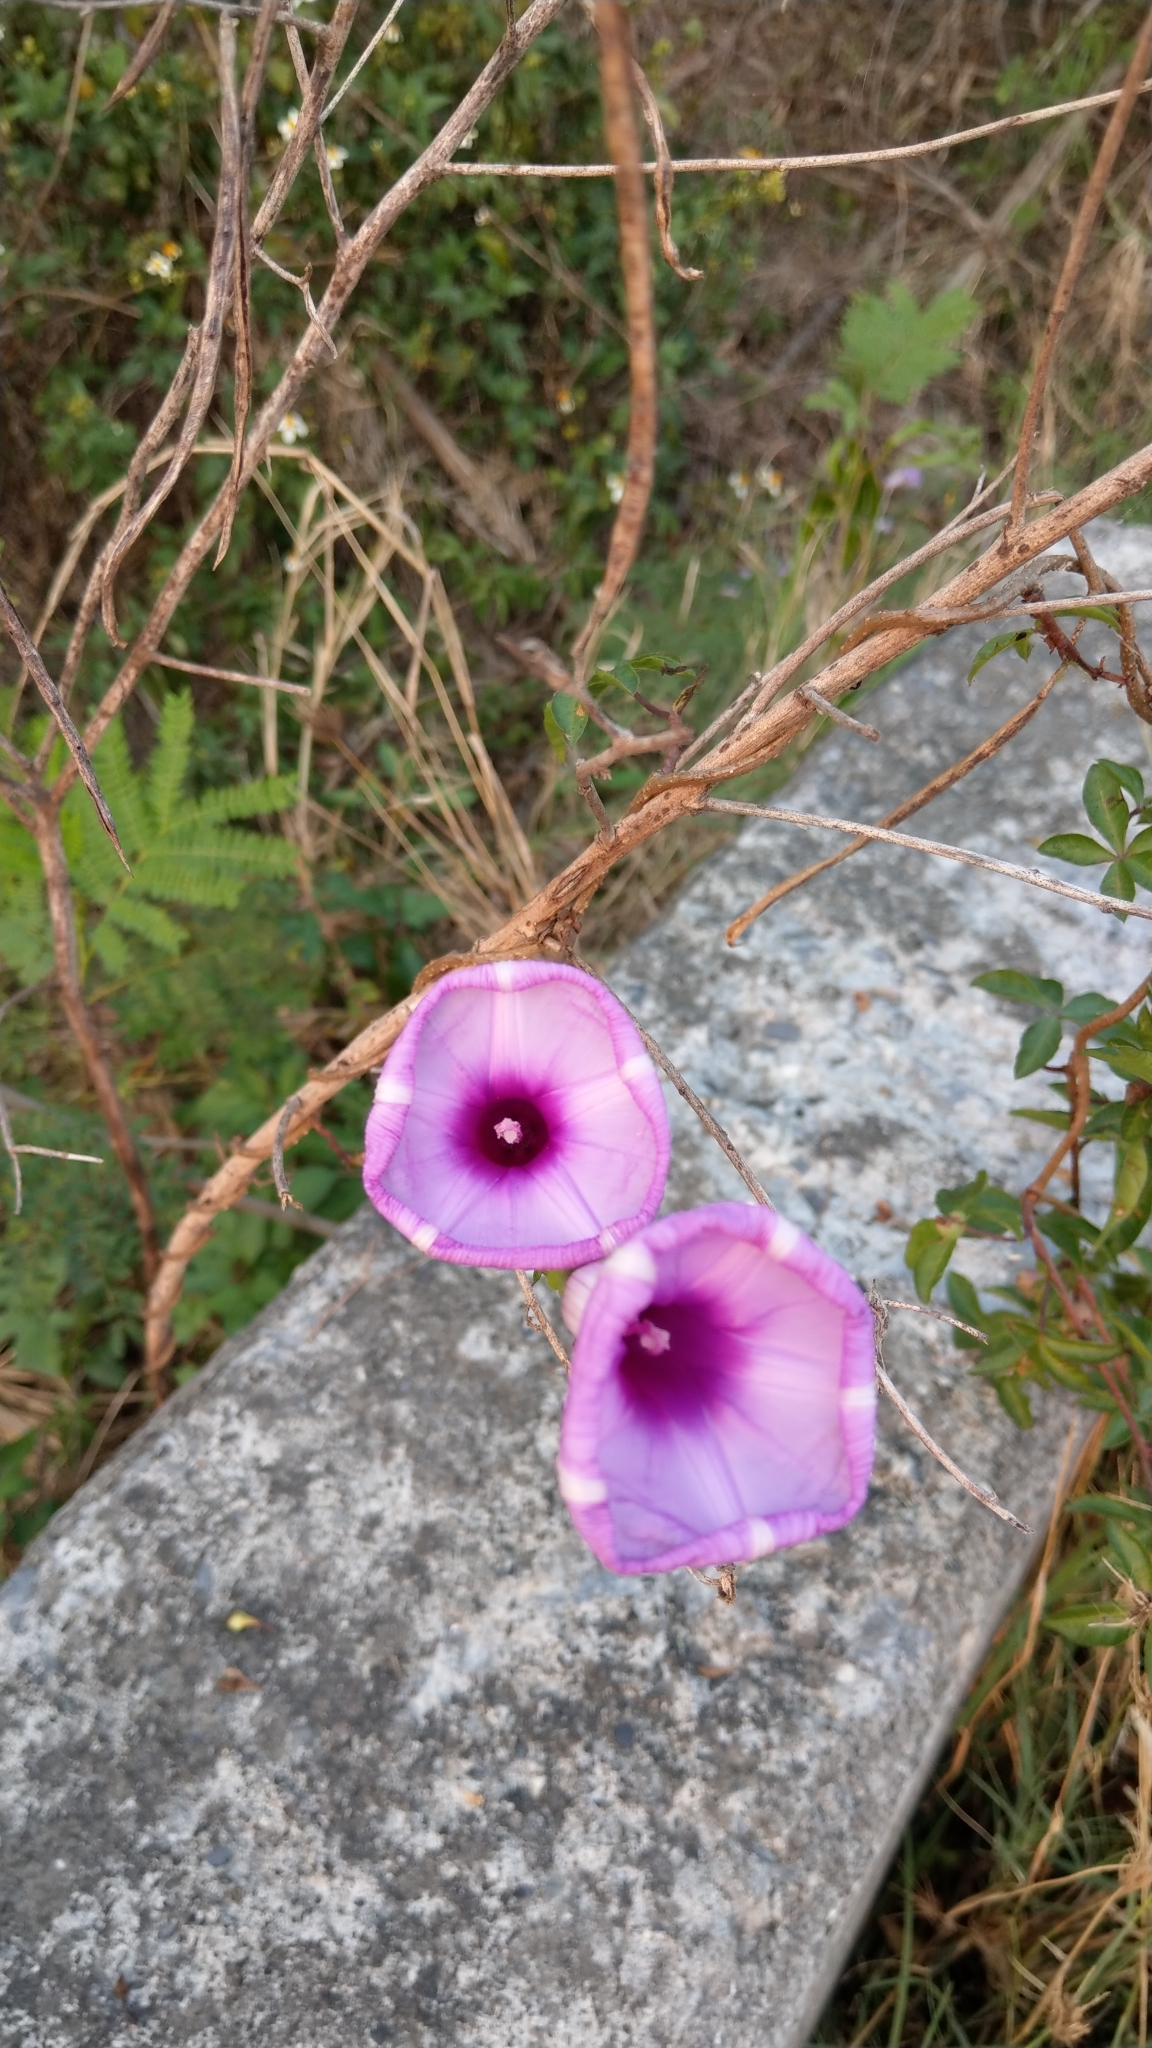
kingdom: Plantae
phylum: Tracheophyta
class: Magnoliopsida
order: Solanales
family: Convolvulaceae
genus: Ipomoea
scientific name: Ipomoea cairica
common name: Mile a minute vine
